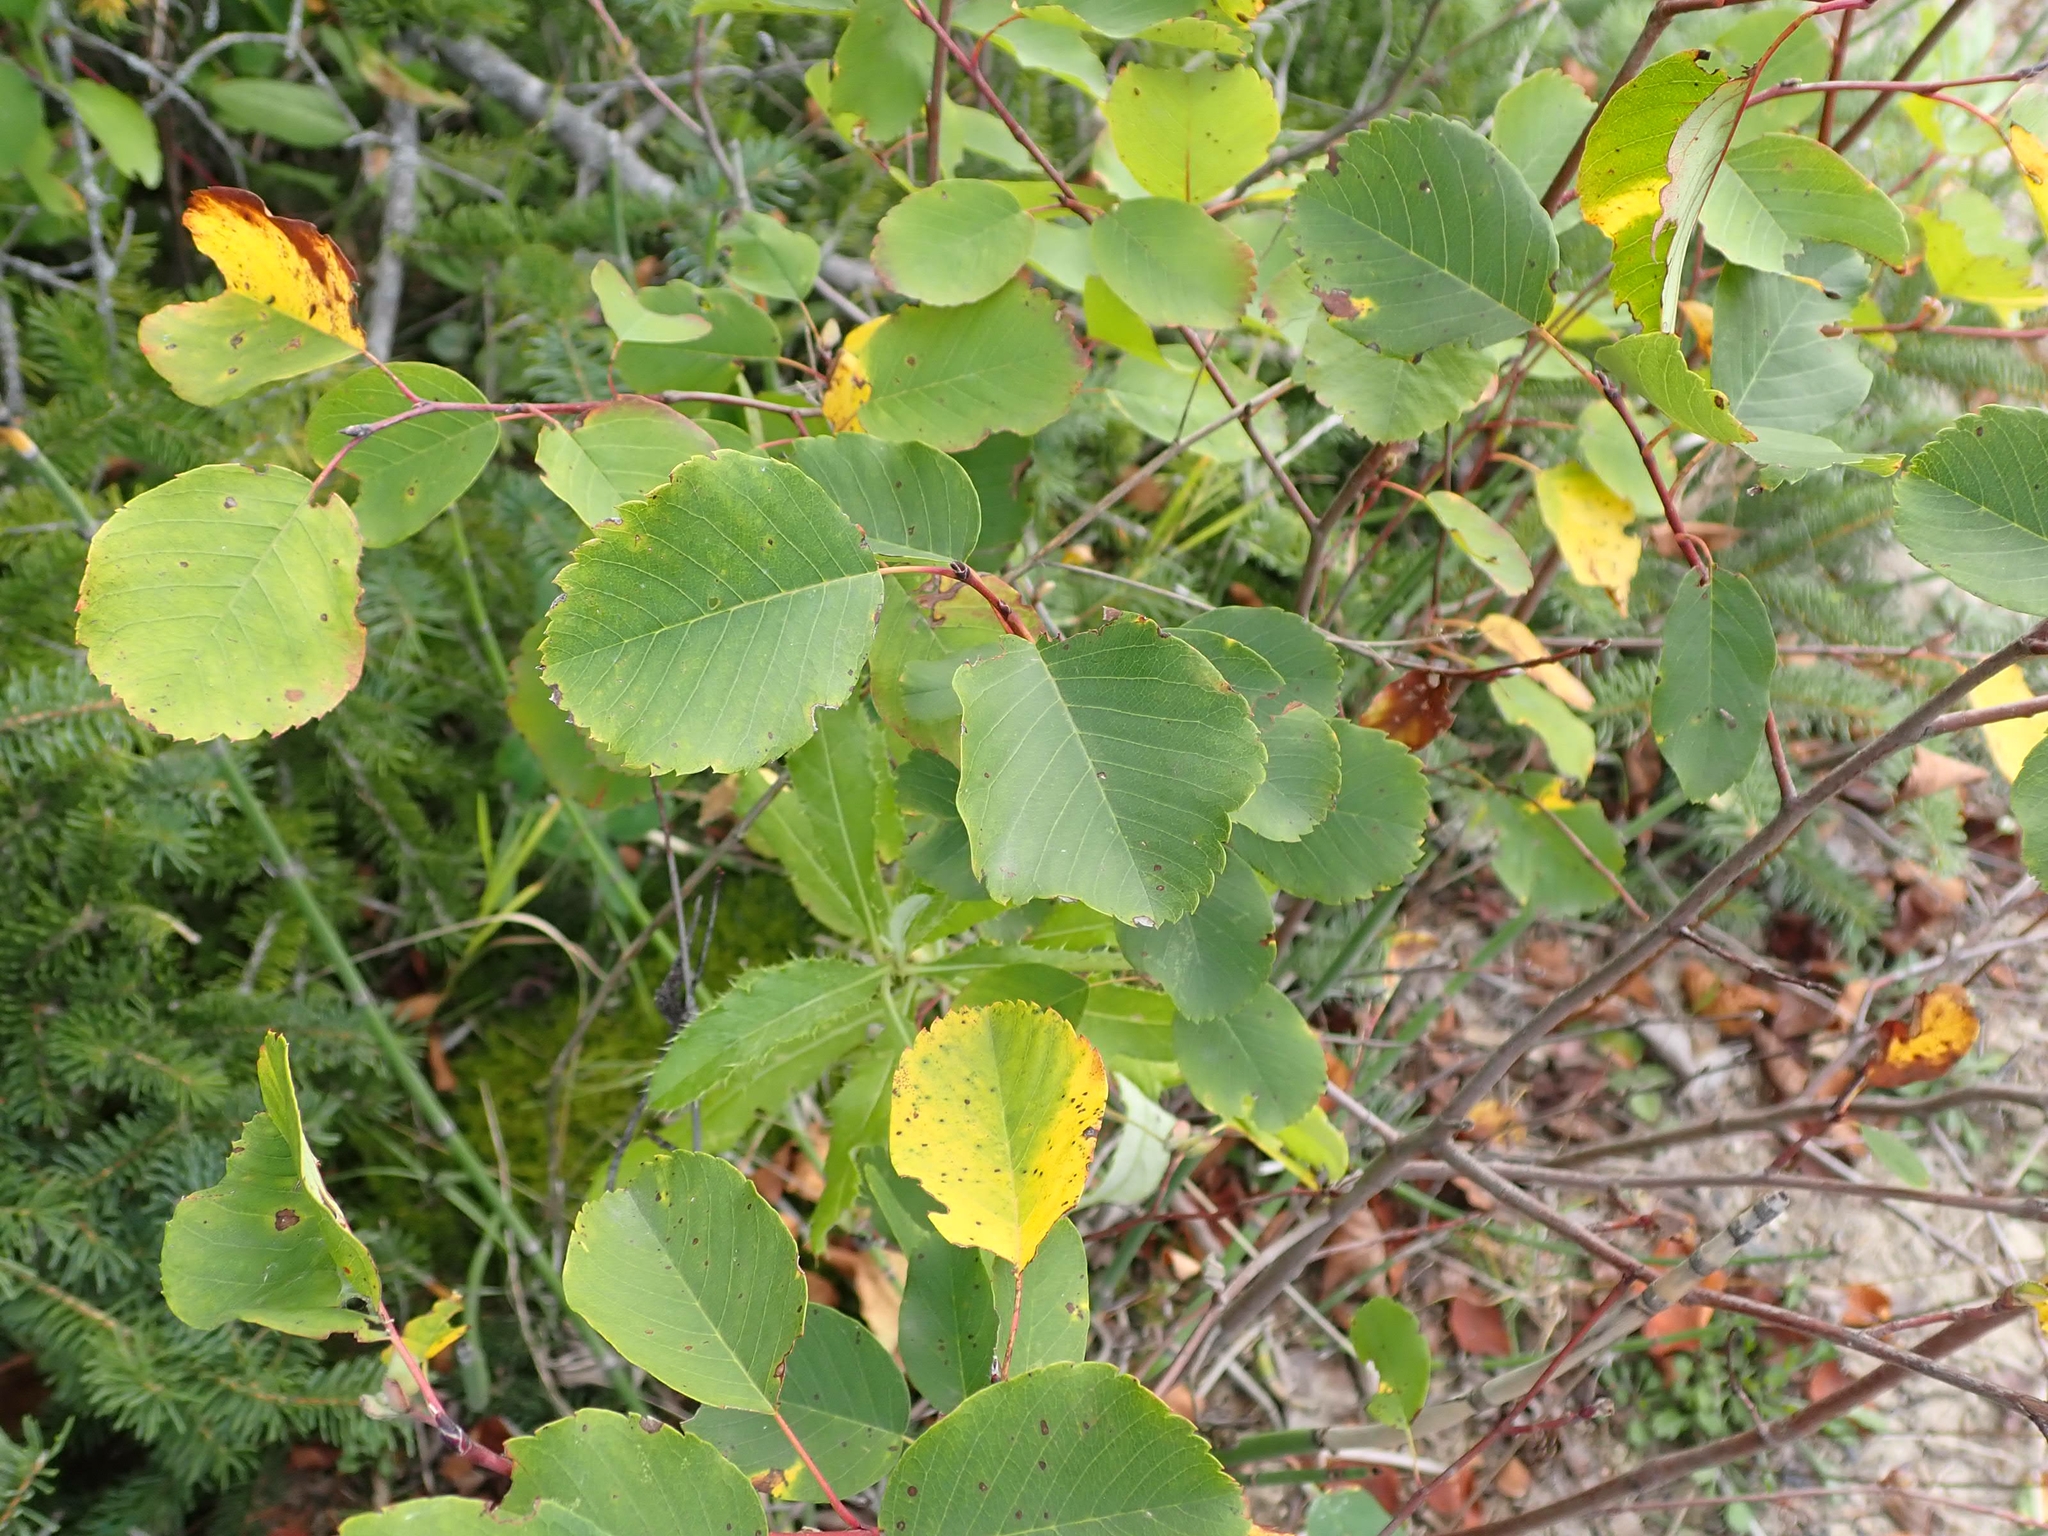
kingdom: Plantae
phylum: Tracheophyta
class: Magnoliopsida
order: Rosales
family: Rosaceae
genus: Amelanchier
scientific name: Amelanchier alnifolia
